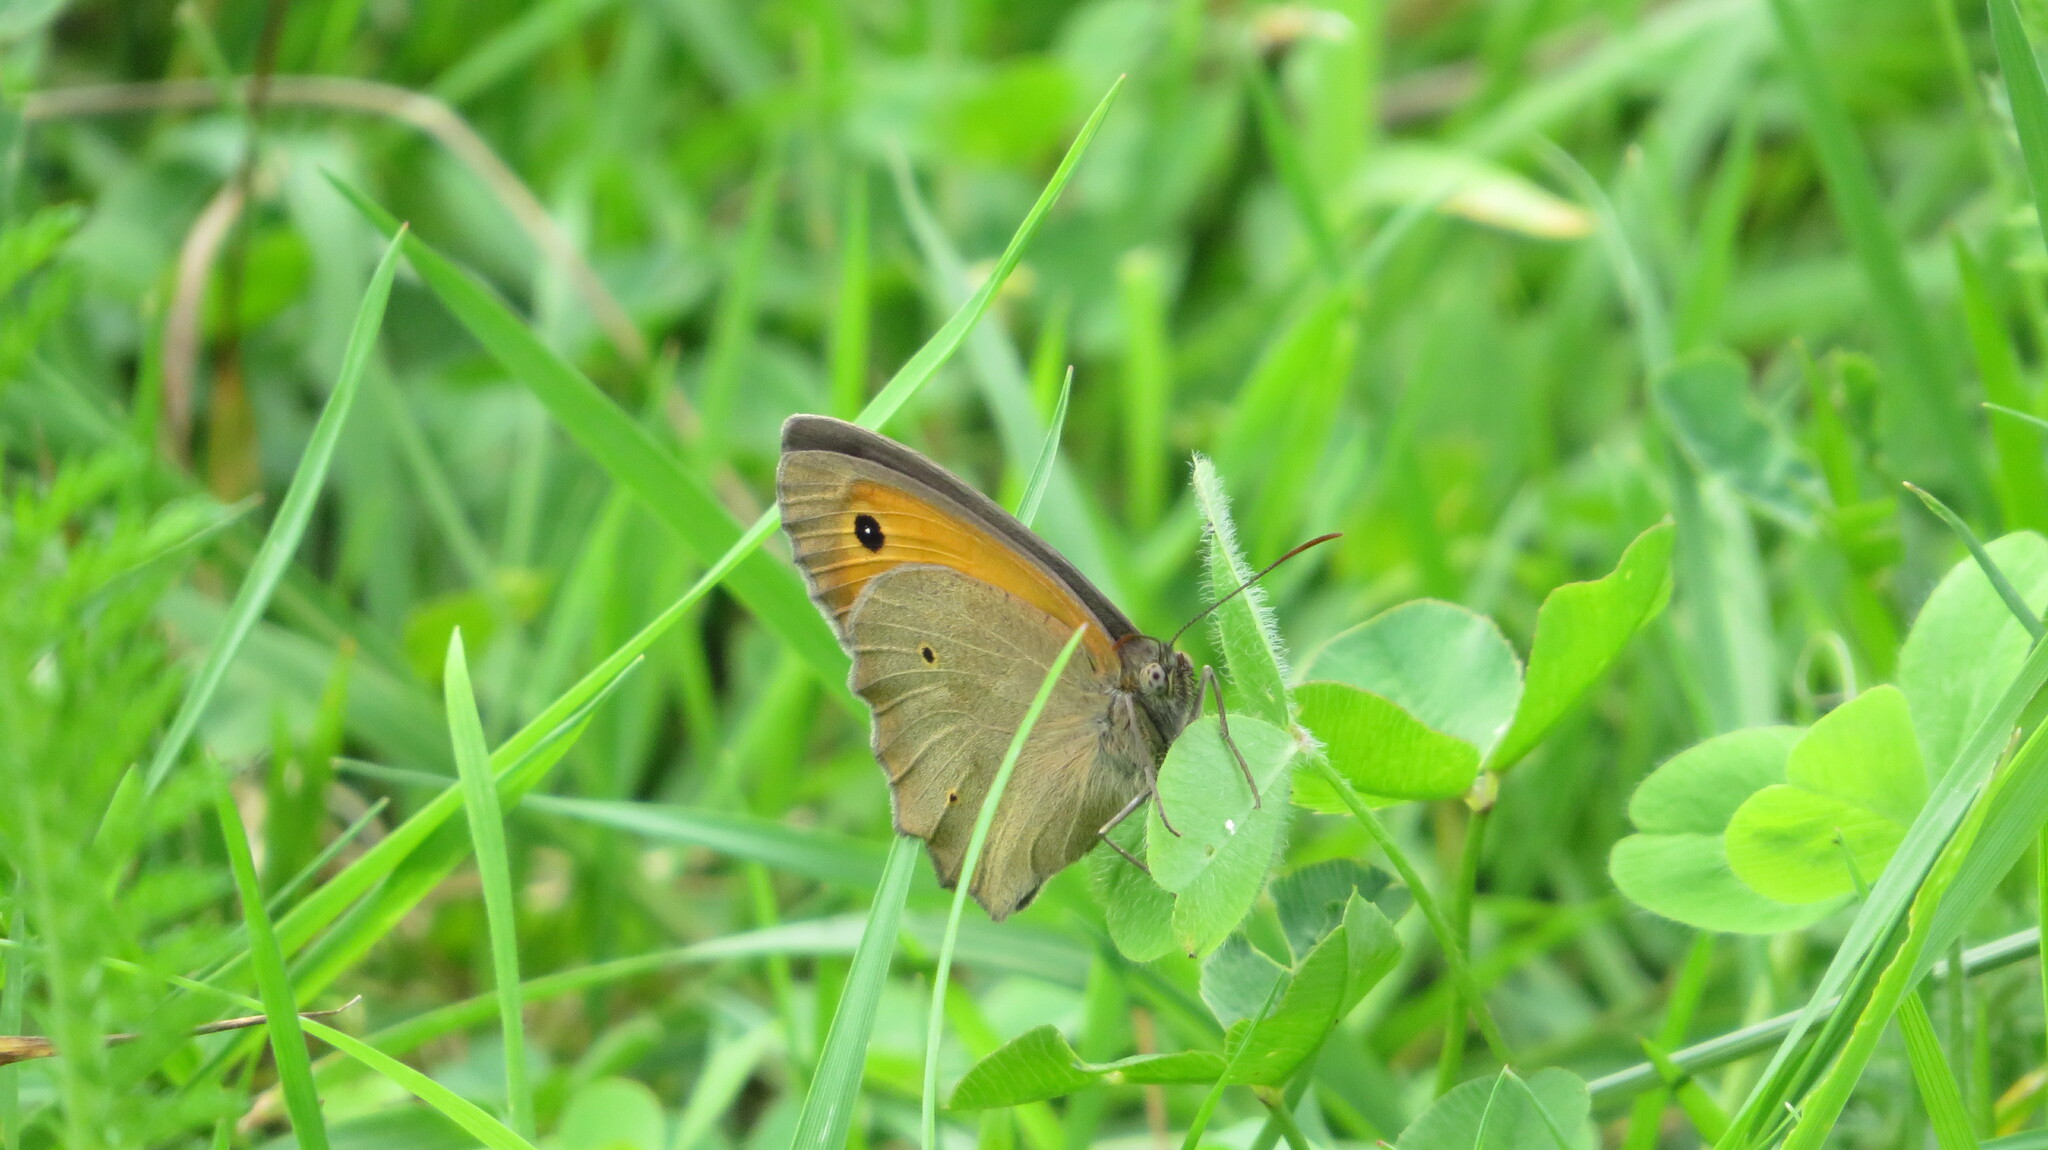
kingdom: Animalia
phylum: Arthropoda
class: Insecta
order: Lepidoptera
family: Nymphalidae
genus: Maniola
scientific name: Maniola jurtina
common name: Meadow brown
